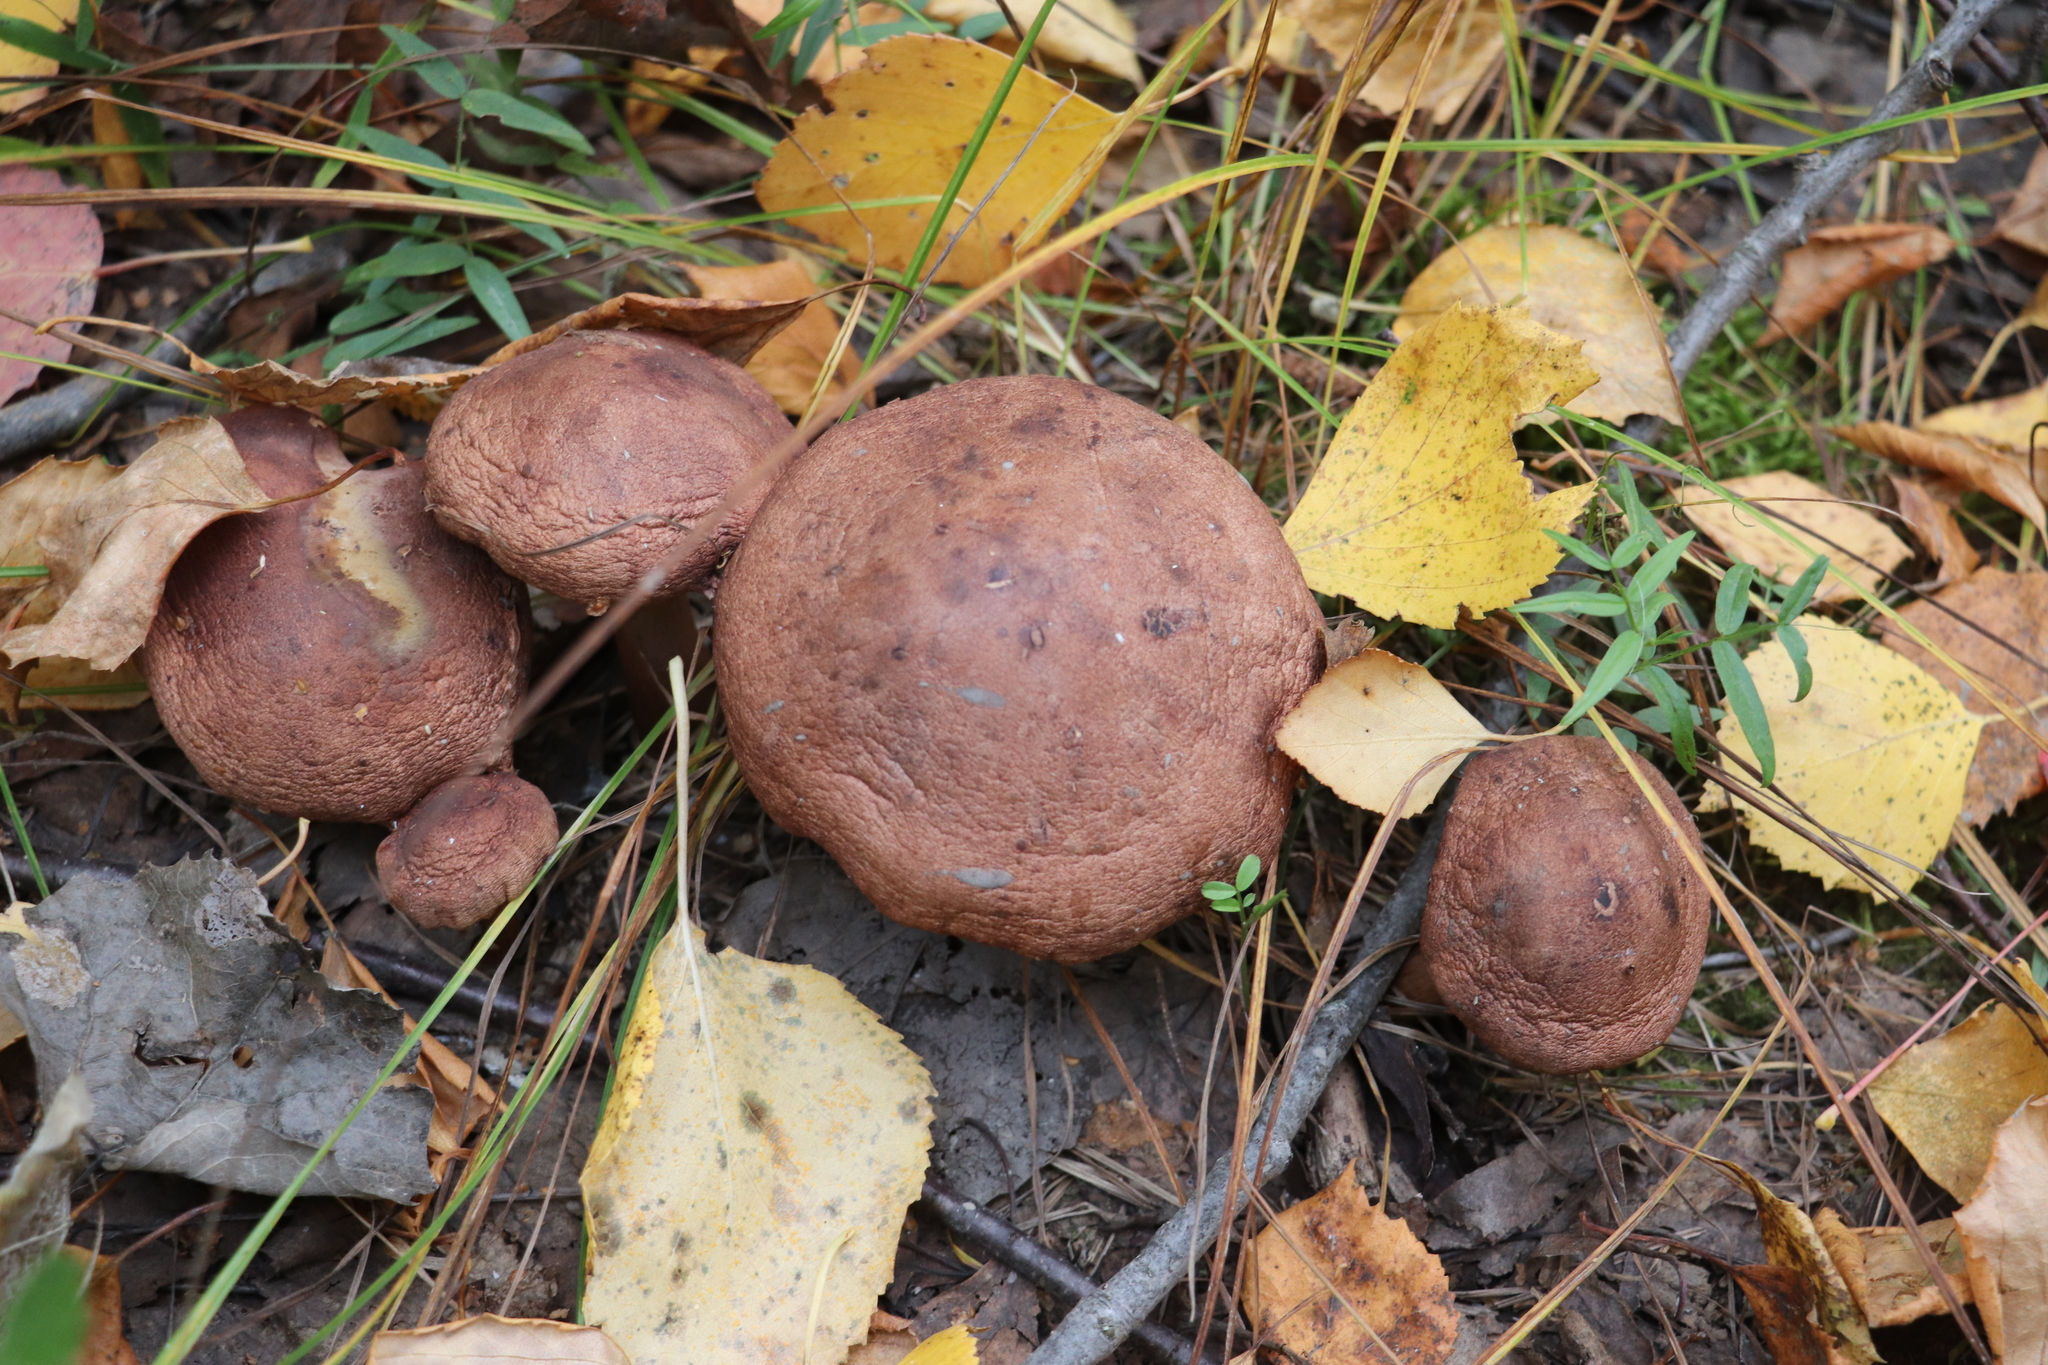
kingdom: Fungi
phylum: Basidiomycota
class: Agaricomycetes
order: Agaricales
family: Tricholomataceae
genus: Tricholoma
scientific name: Tricholoma fulvum
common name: Birch knight
